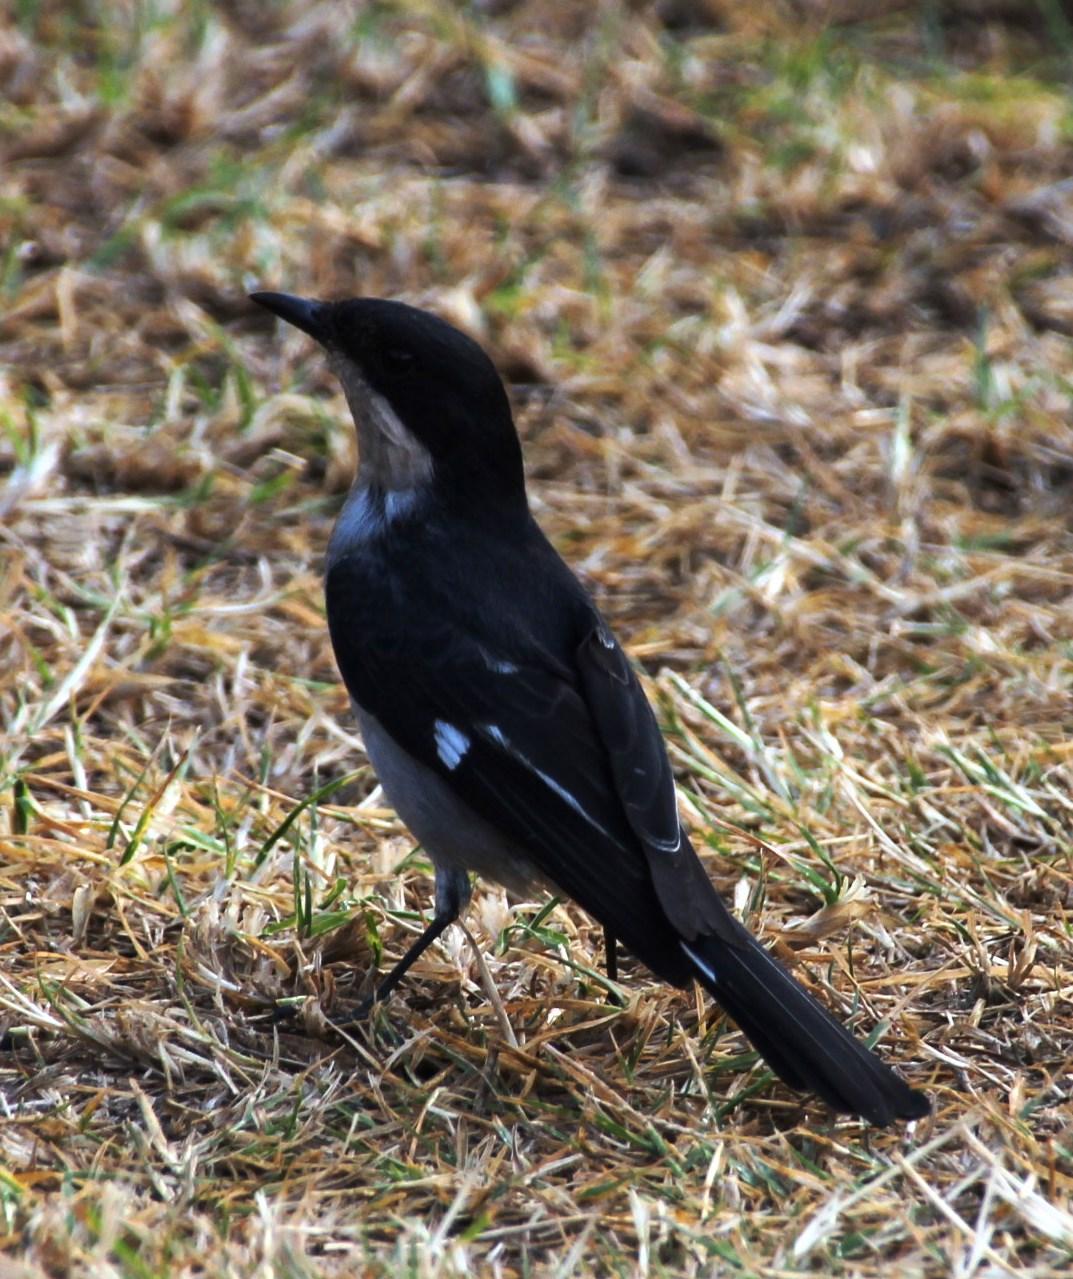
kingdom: Animalia
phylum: Chordata
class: Aves
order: Passeriformes
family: Muscicapidae
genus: Sigelus
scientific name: Sigelus silens
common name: Fiscal flycatcher
